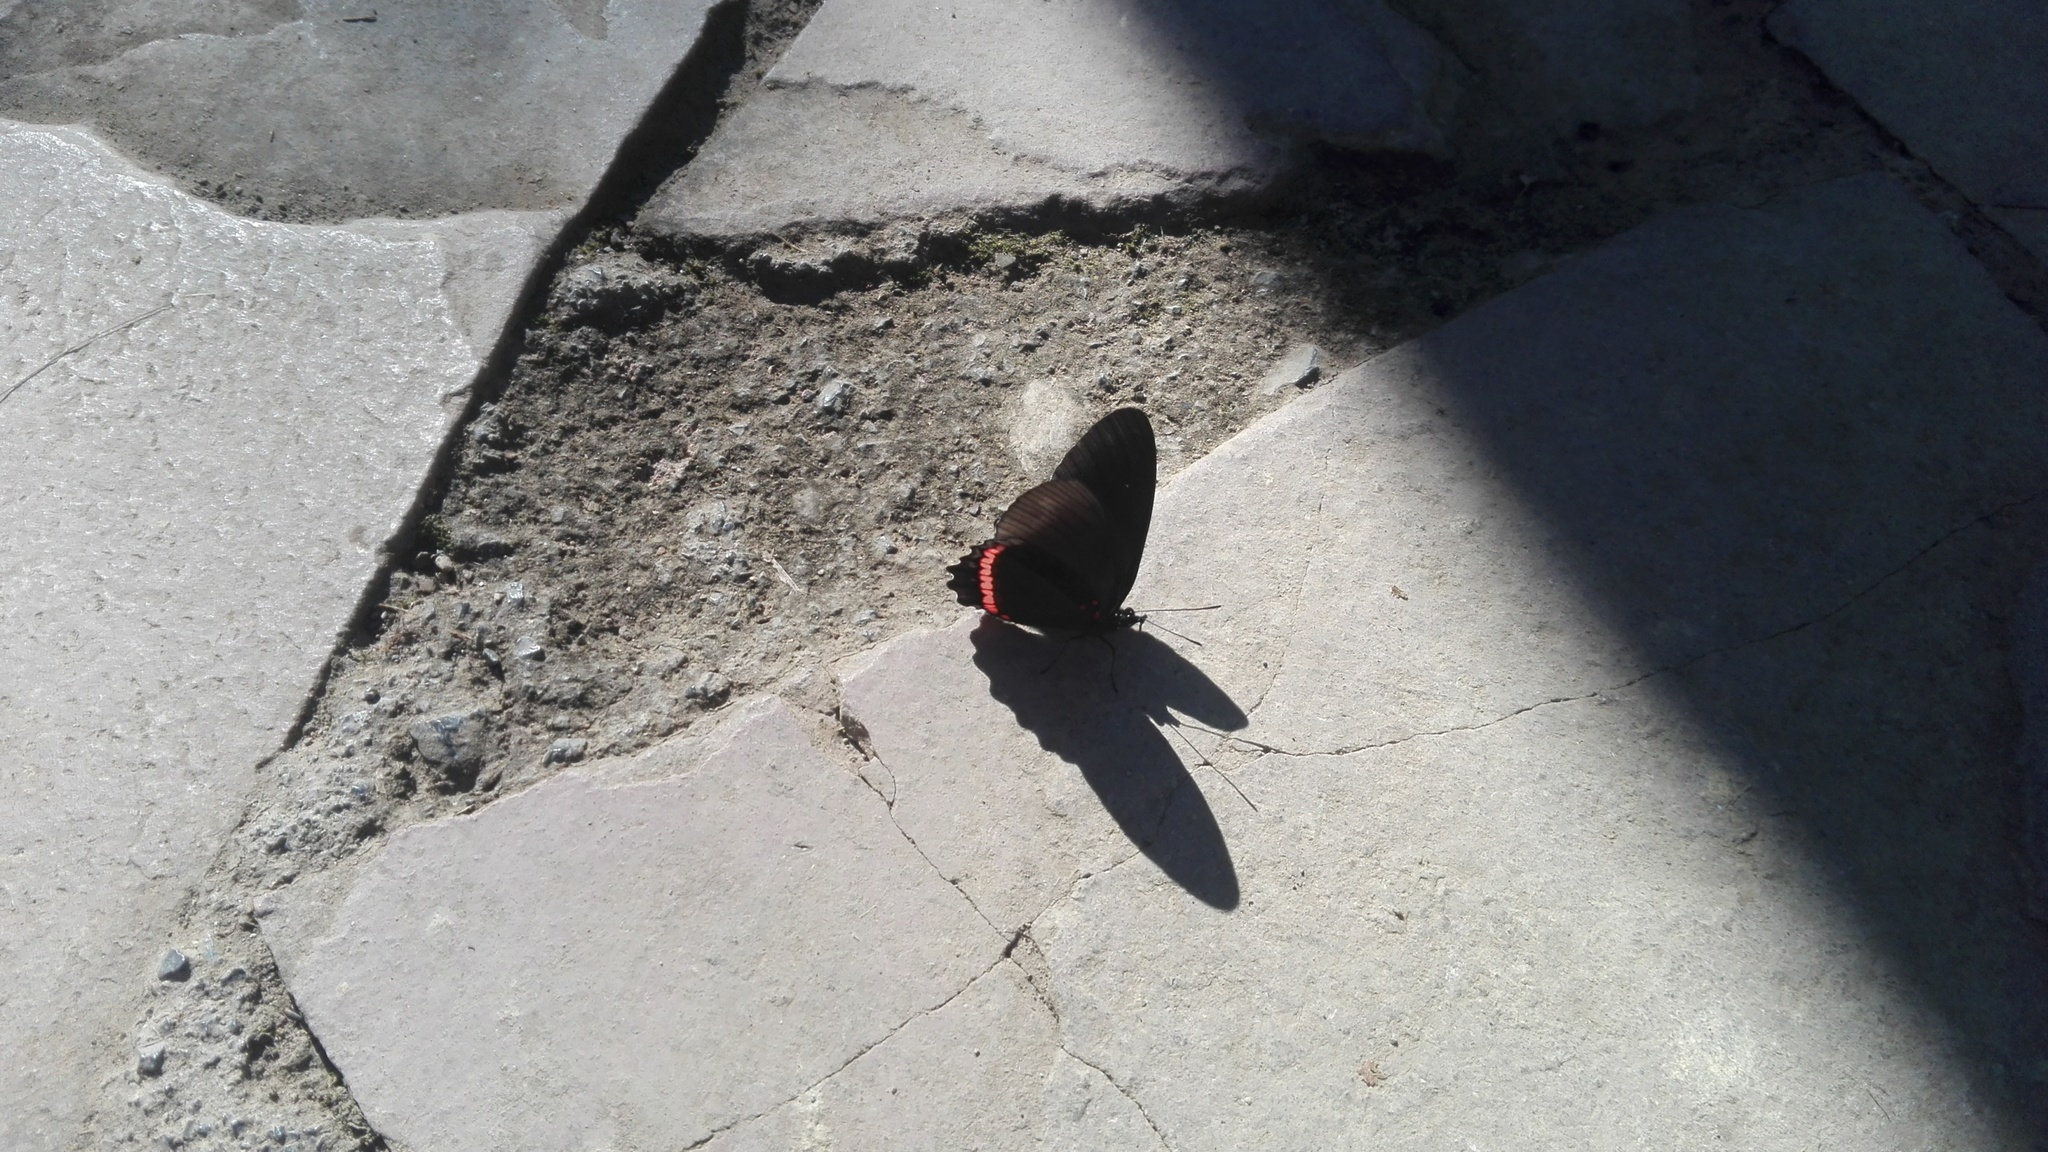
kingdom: Animalia
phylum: Arthropoda
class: Insecta
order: Lepidoptera
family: Nymphalidae
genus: Biblis
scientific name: Biblis aganisa
